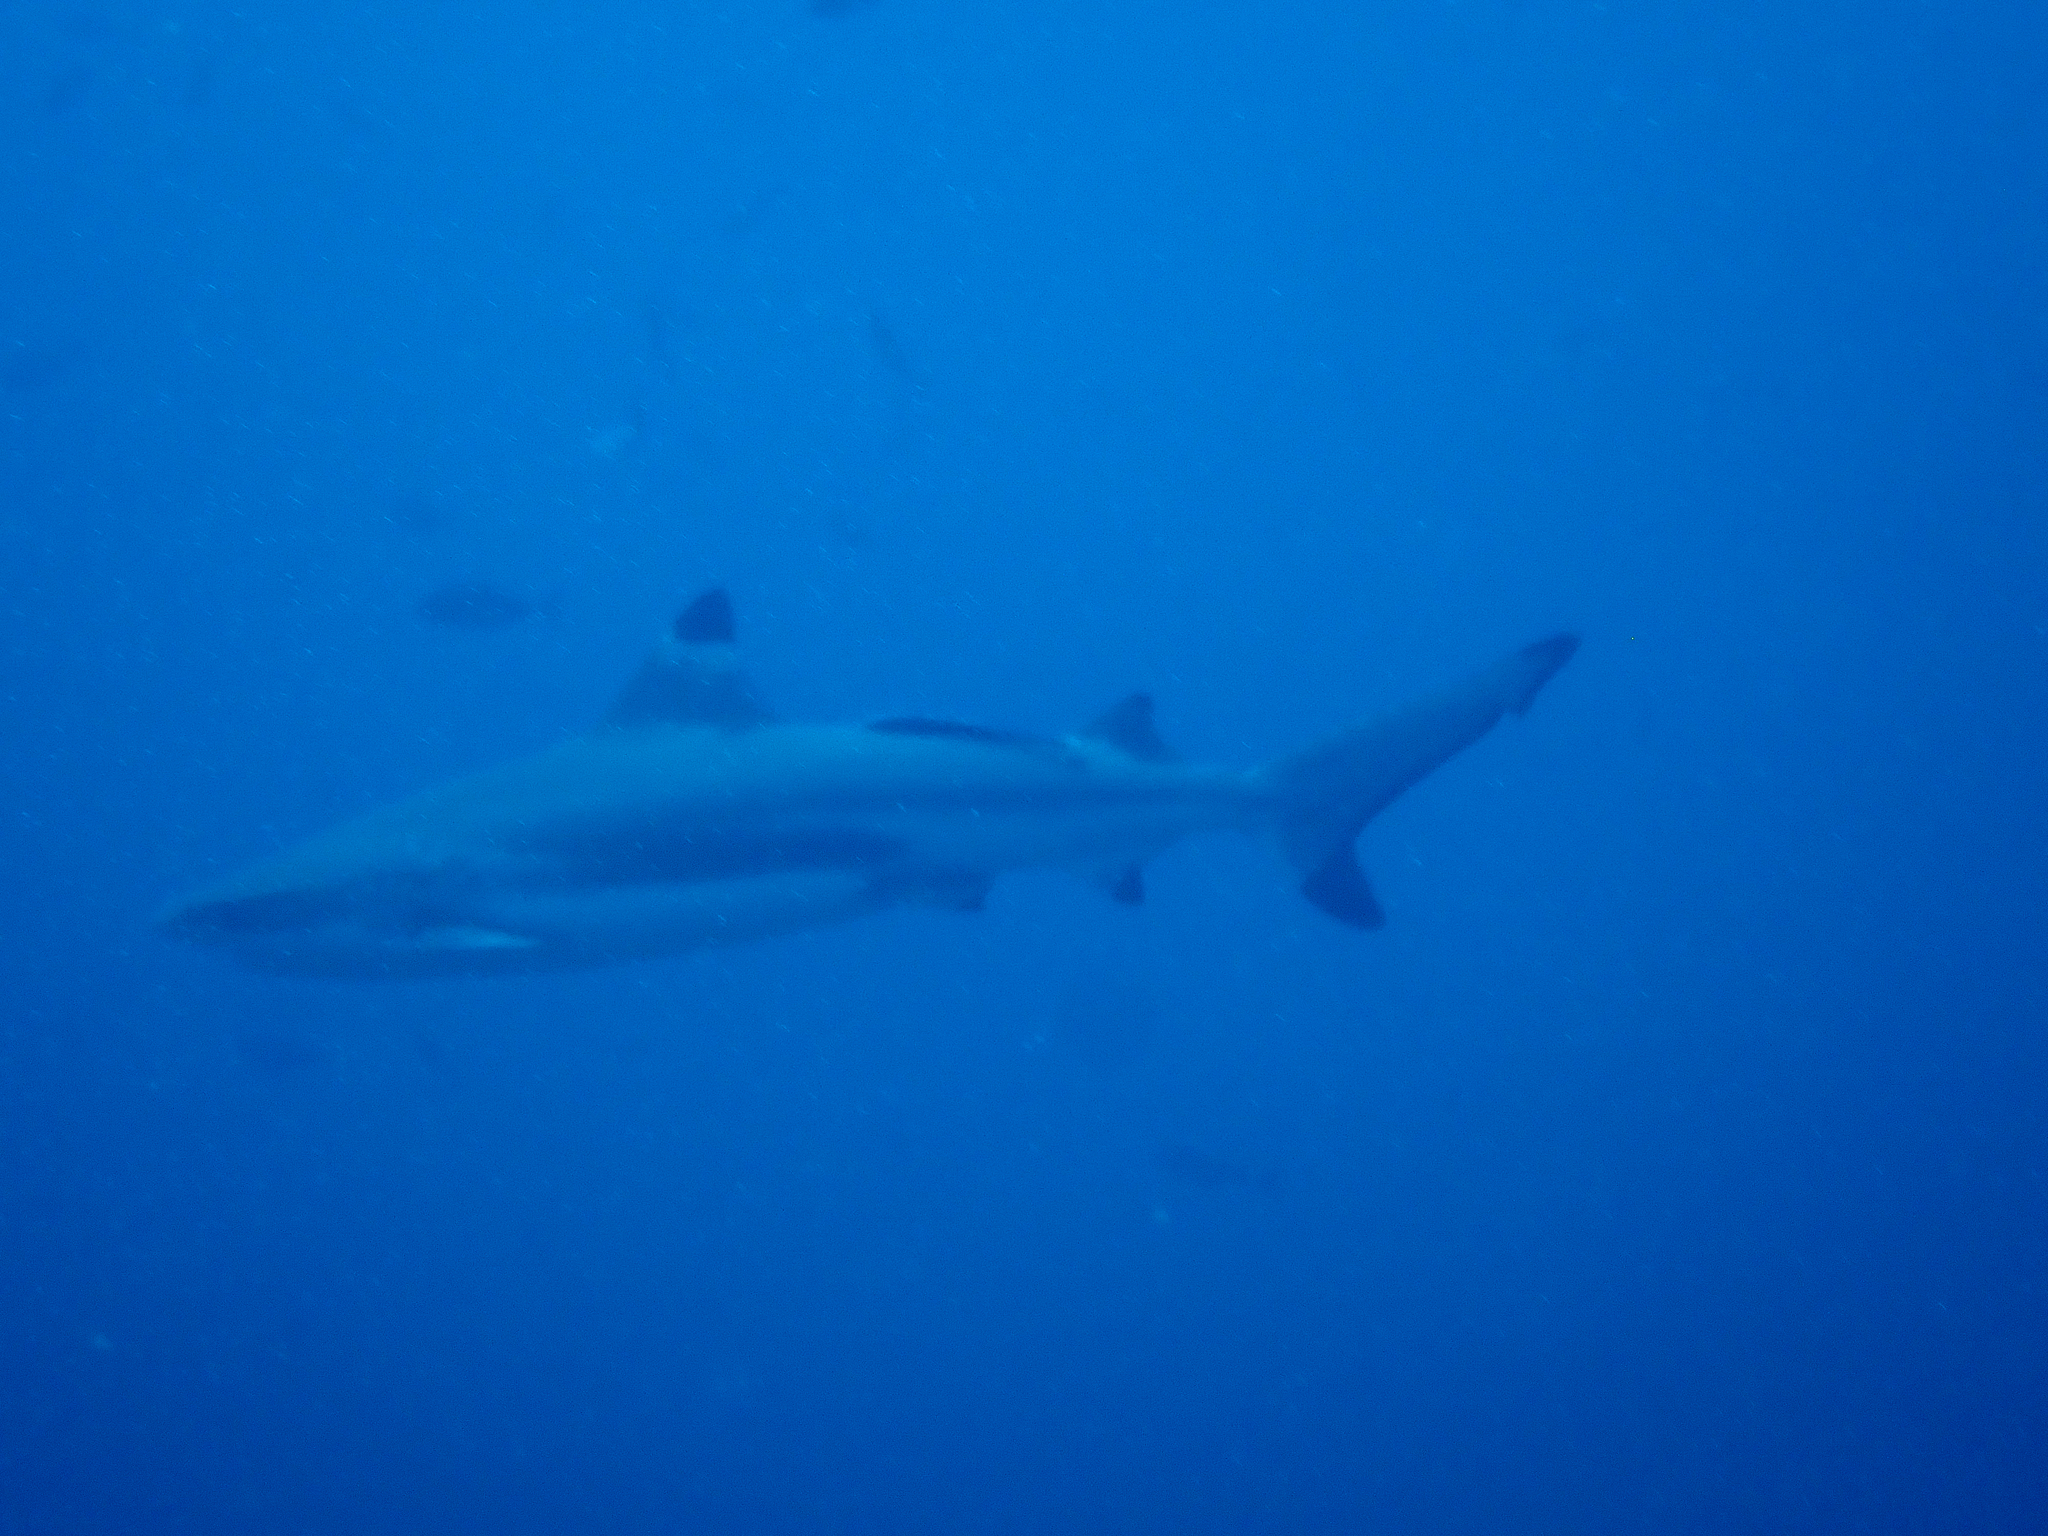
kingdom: Animalia
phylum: Chordata
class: Elasmobranchii
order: Carcharhiniformes
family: Carcharhinidae
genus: Carcharhinus
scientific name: Carcharhinus melanopterus
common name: Blacktip reef shark
